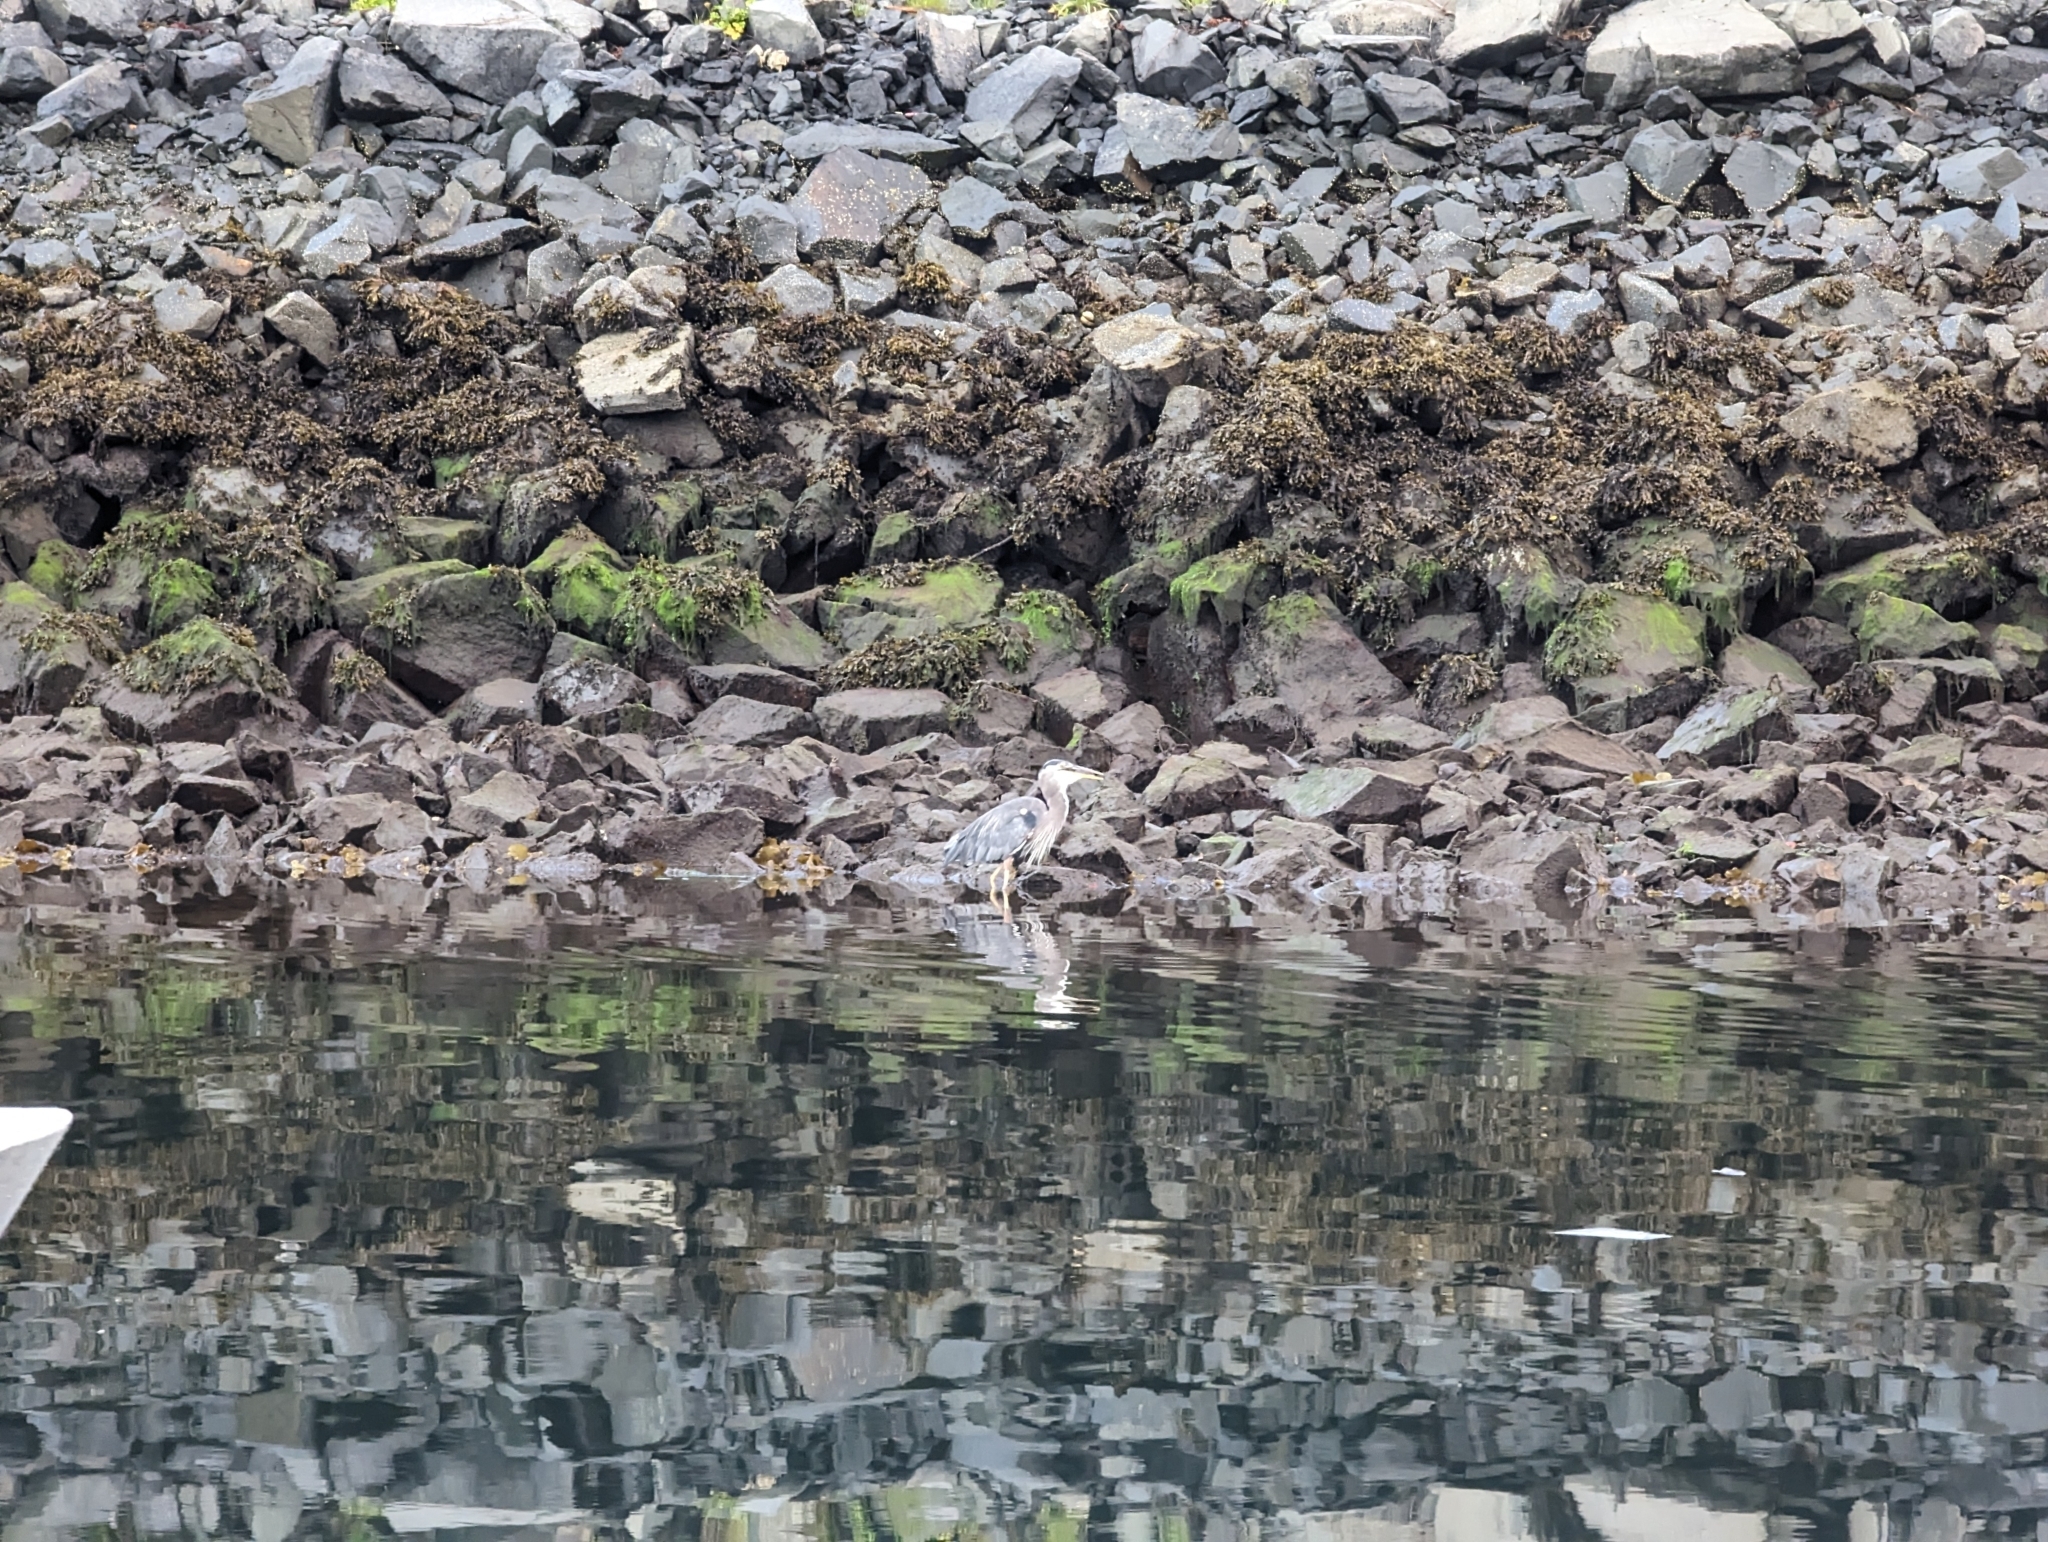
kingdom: Animalia
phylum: Chordata
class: Aves
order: Pelecaniformes
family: Ardeidae
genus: Ardea
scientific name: Ardea herodias
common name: Great blue heron
